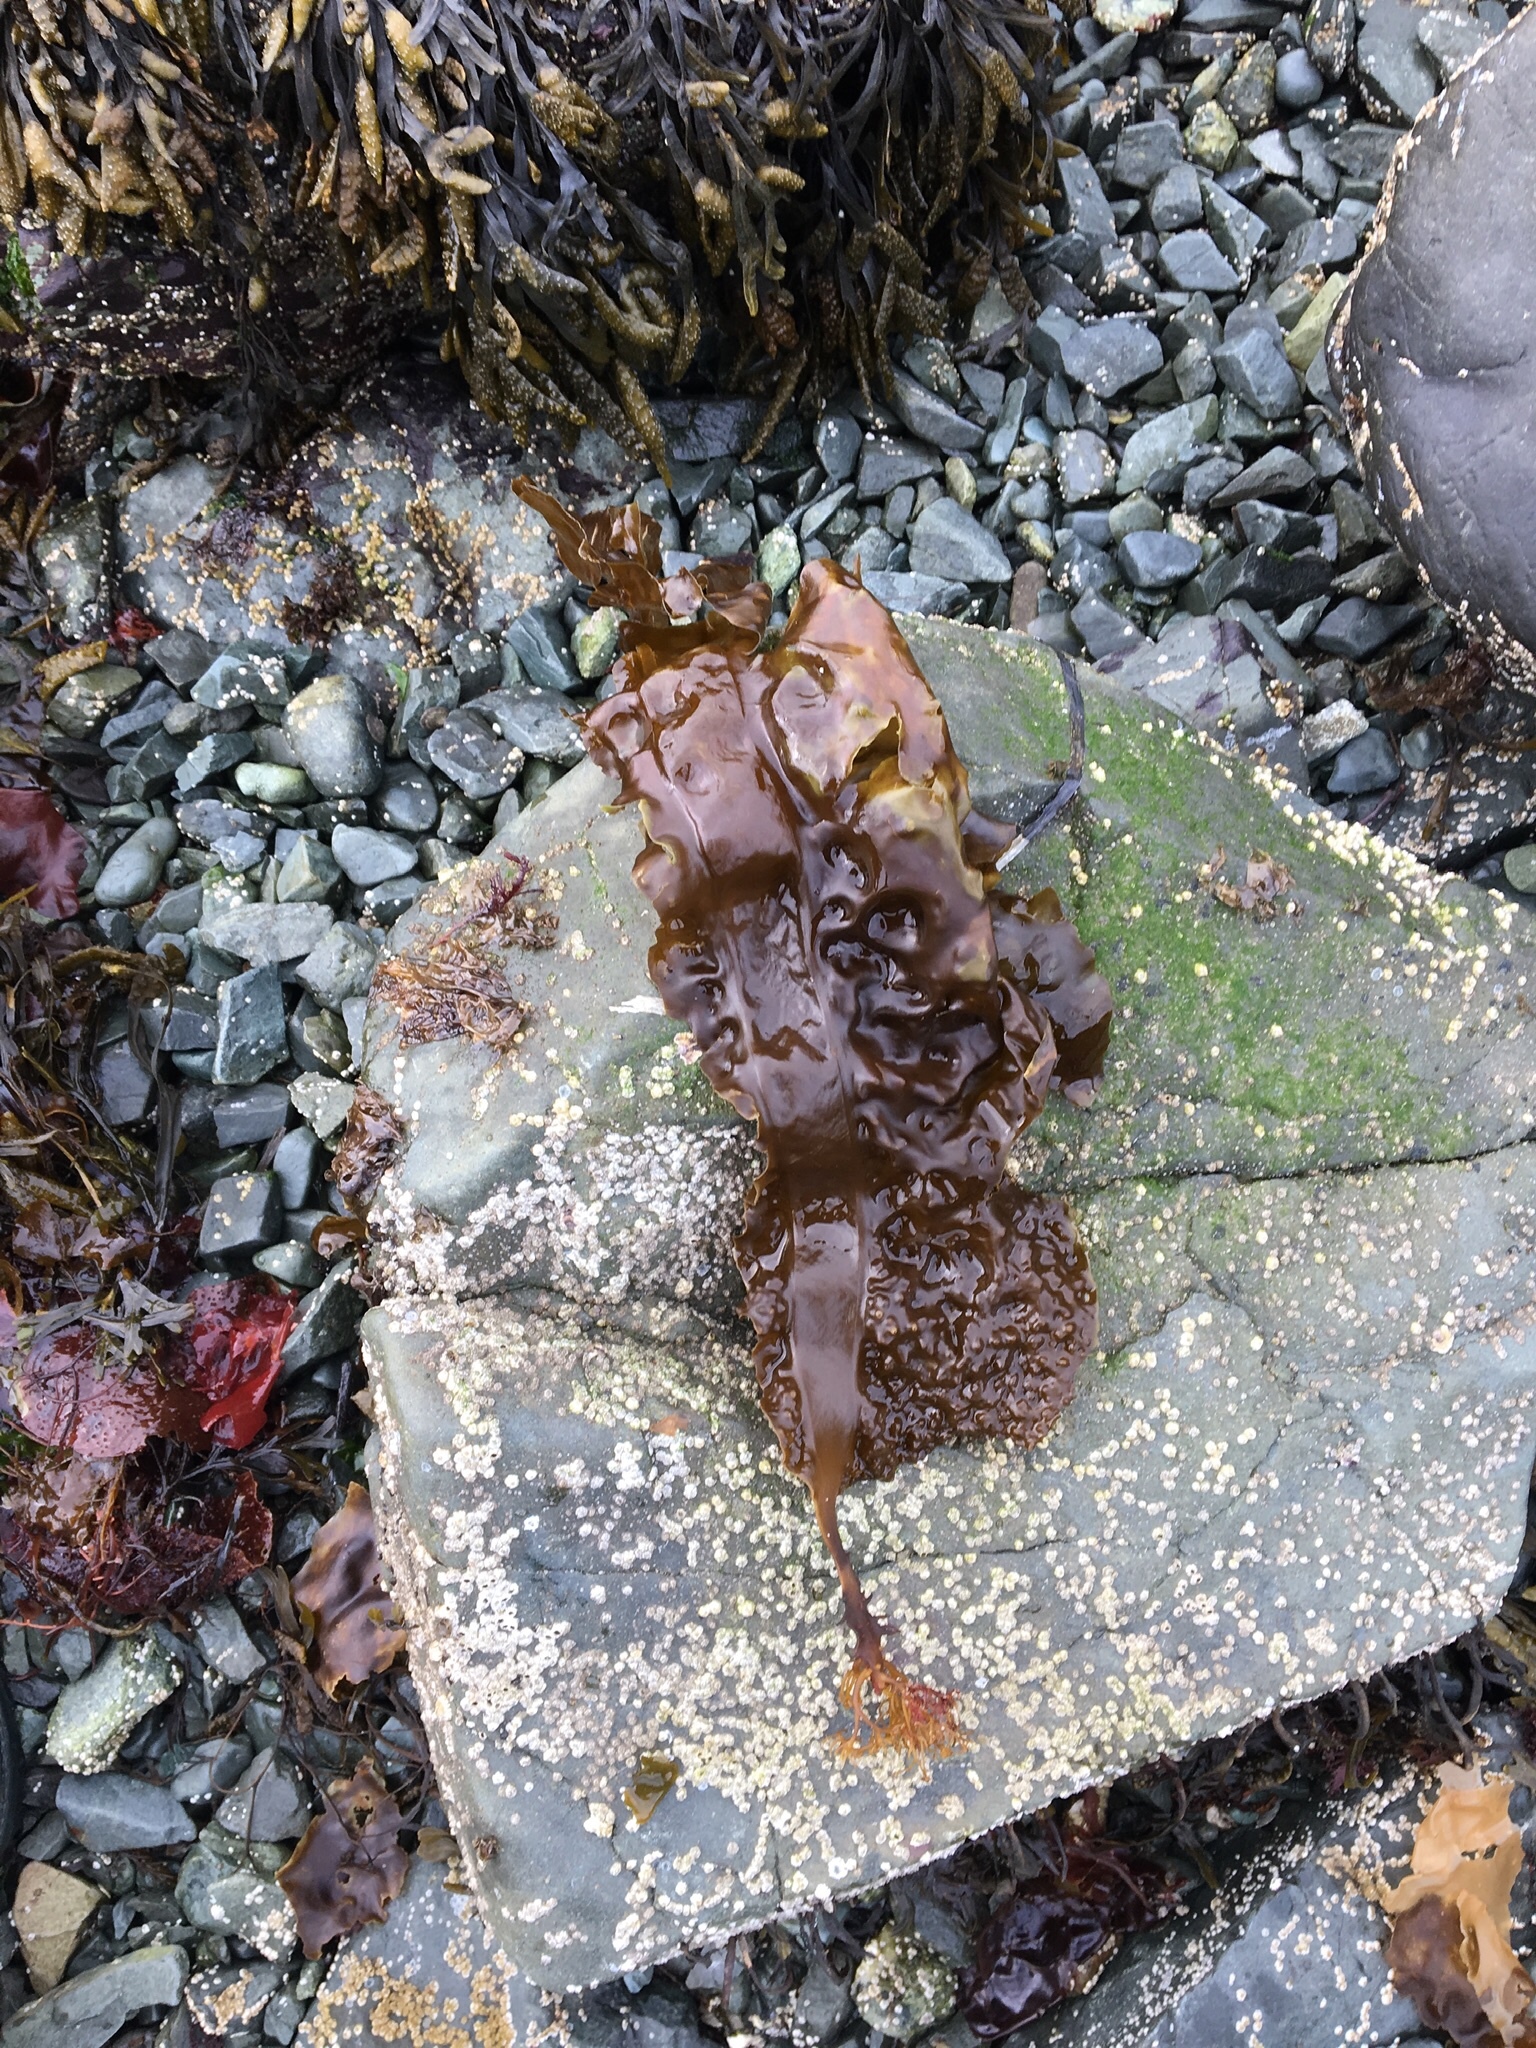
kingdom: Chromista
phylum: Ochrophyta
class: Phaeophyceae
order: Laminariales
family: Agaraceae
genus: Neoagarum
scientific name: Neoagarum
